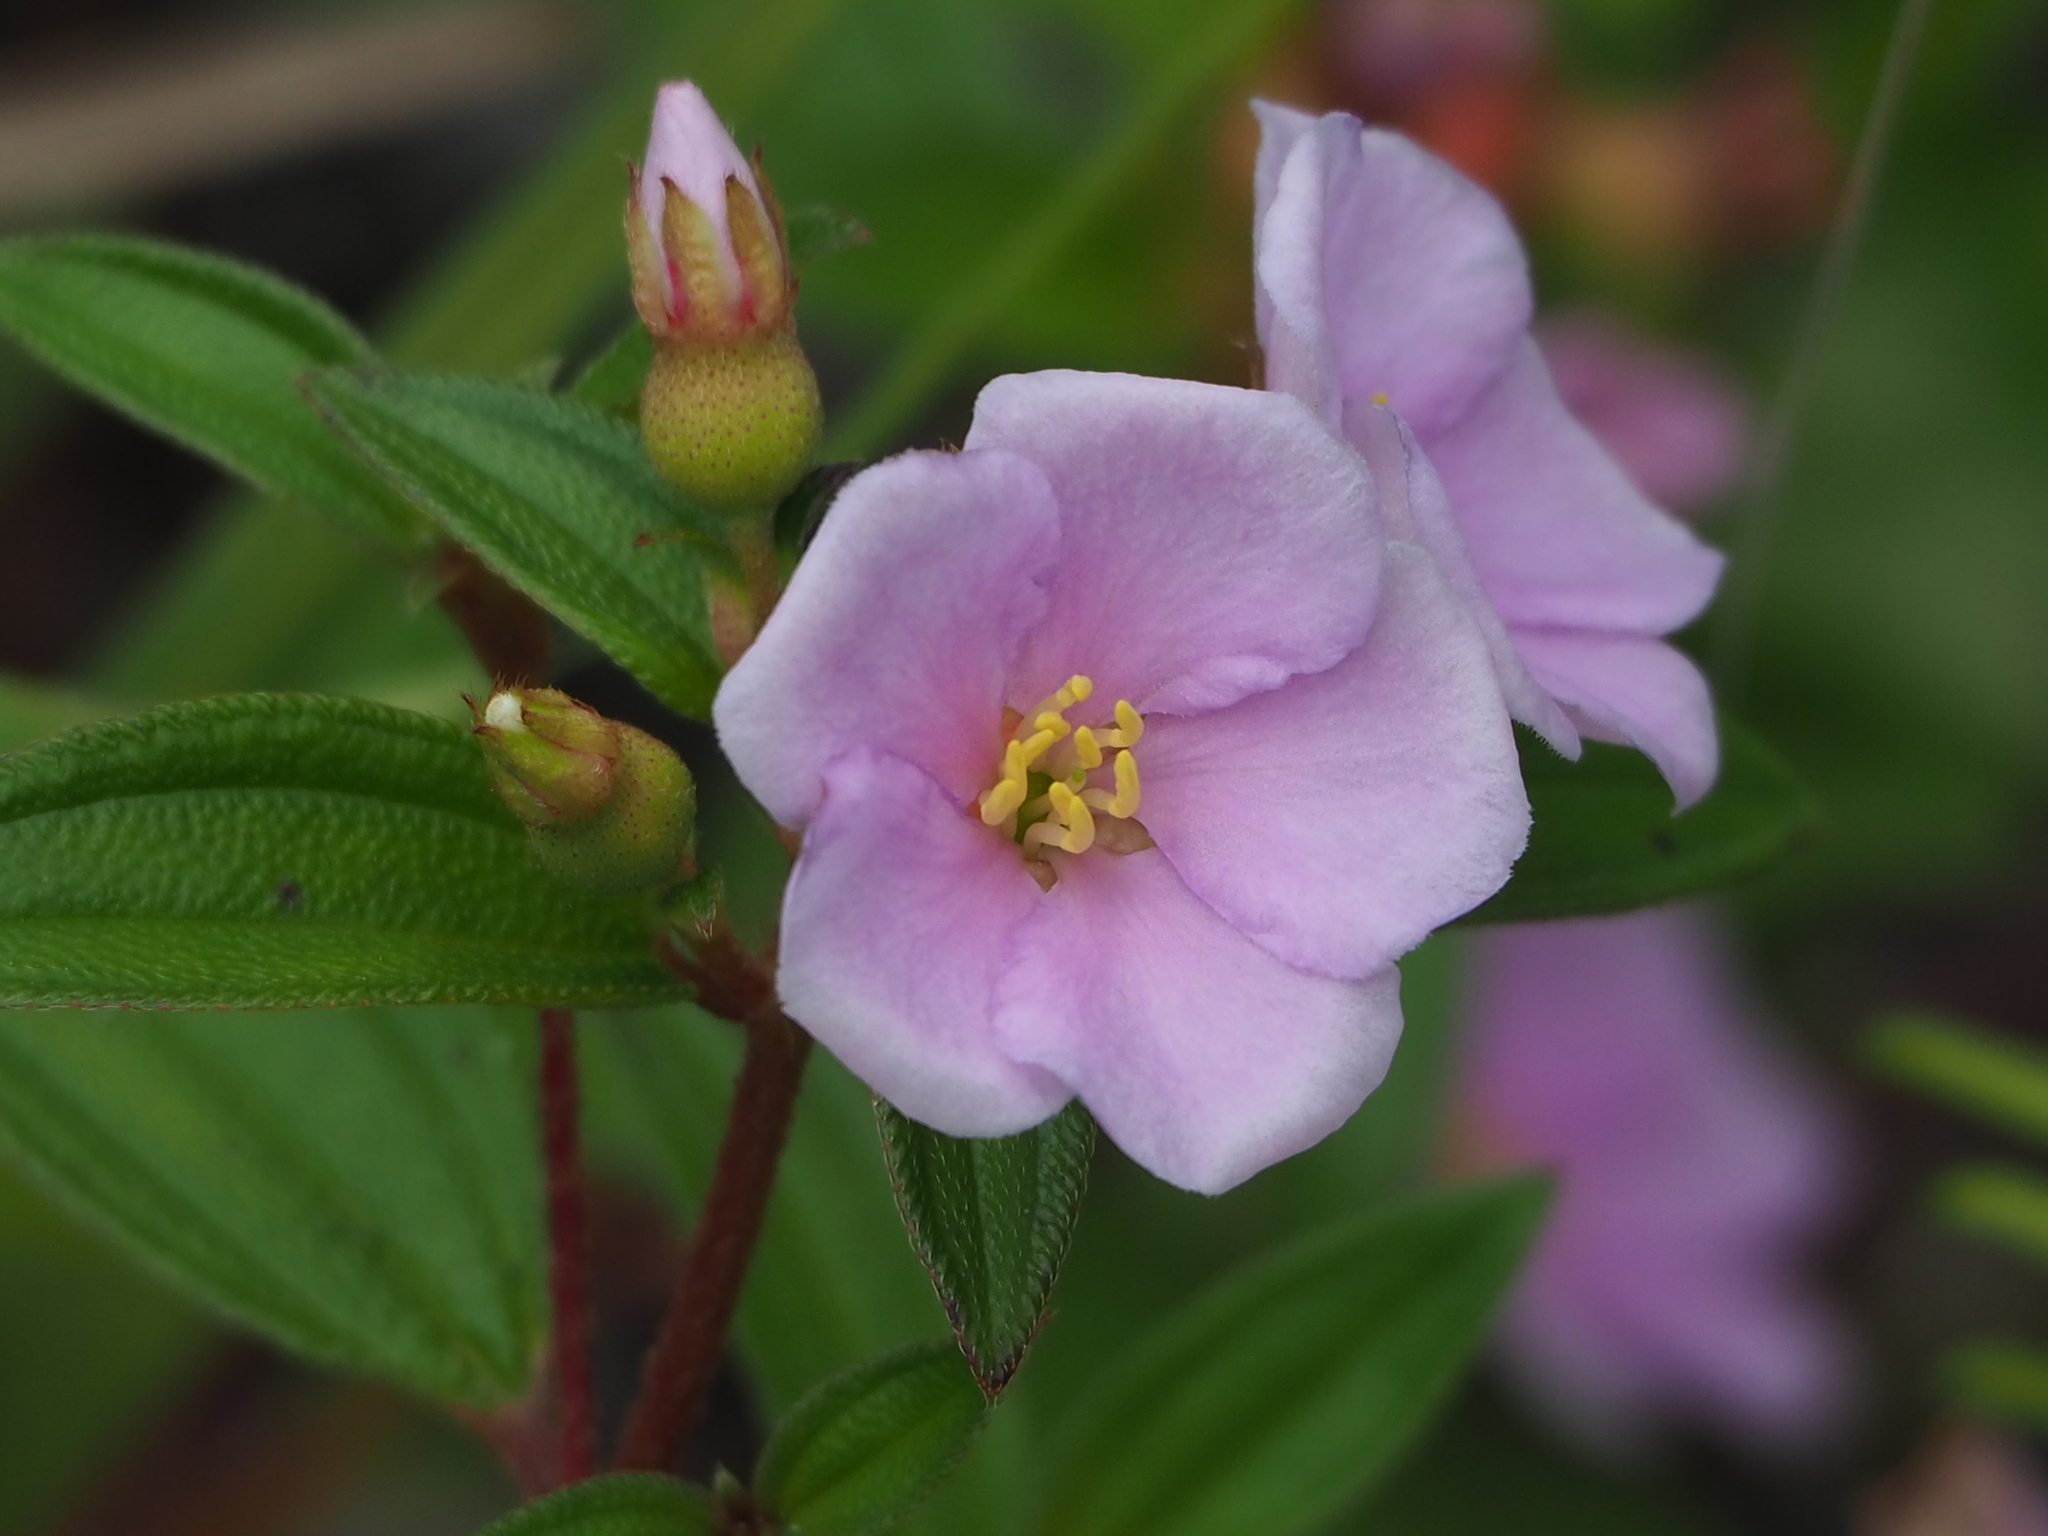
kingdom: Plantae
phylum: Tracheophyta
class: Magnoliopsida
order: Myrtales
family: Melastomataceae
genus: Melastoma
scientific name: Melastoma scaberrima
